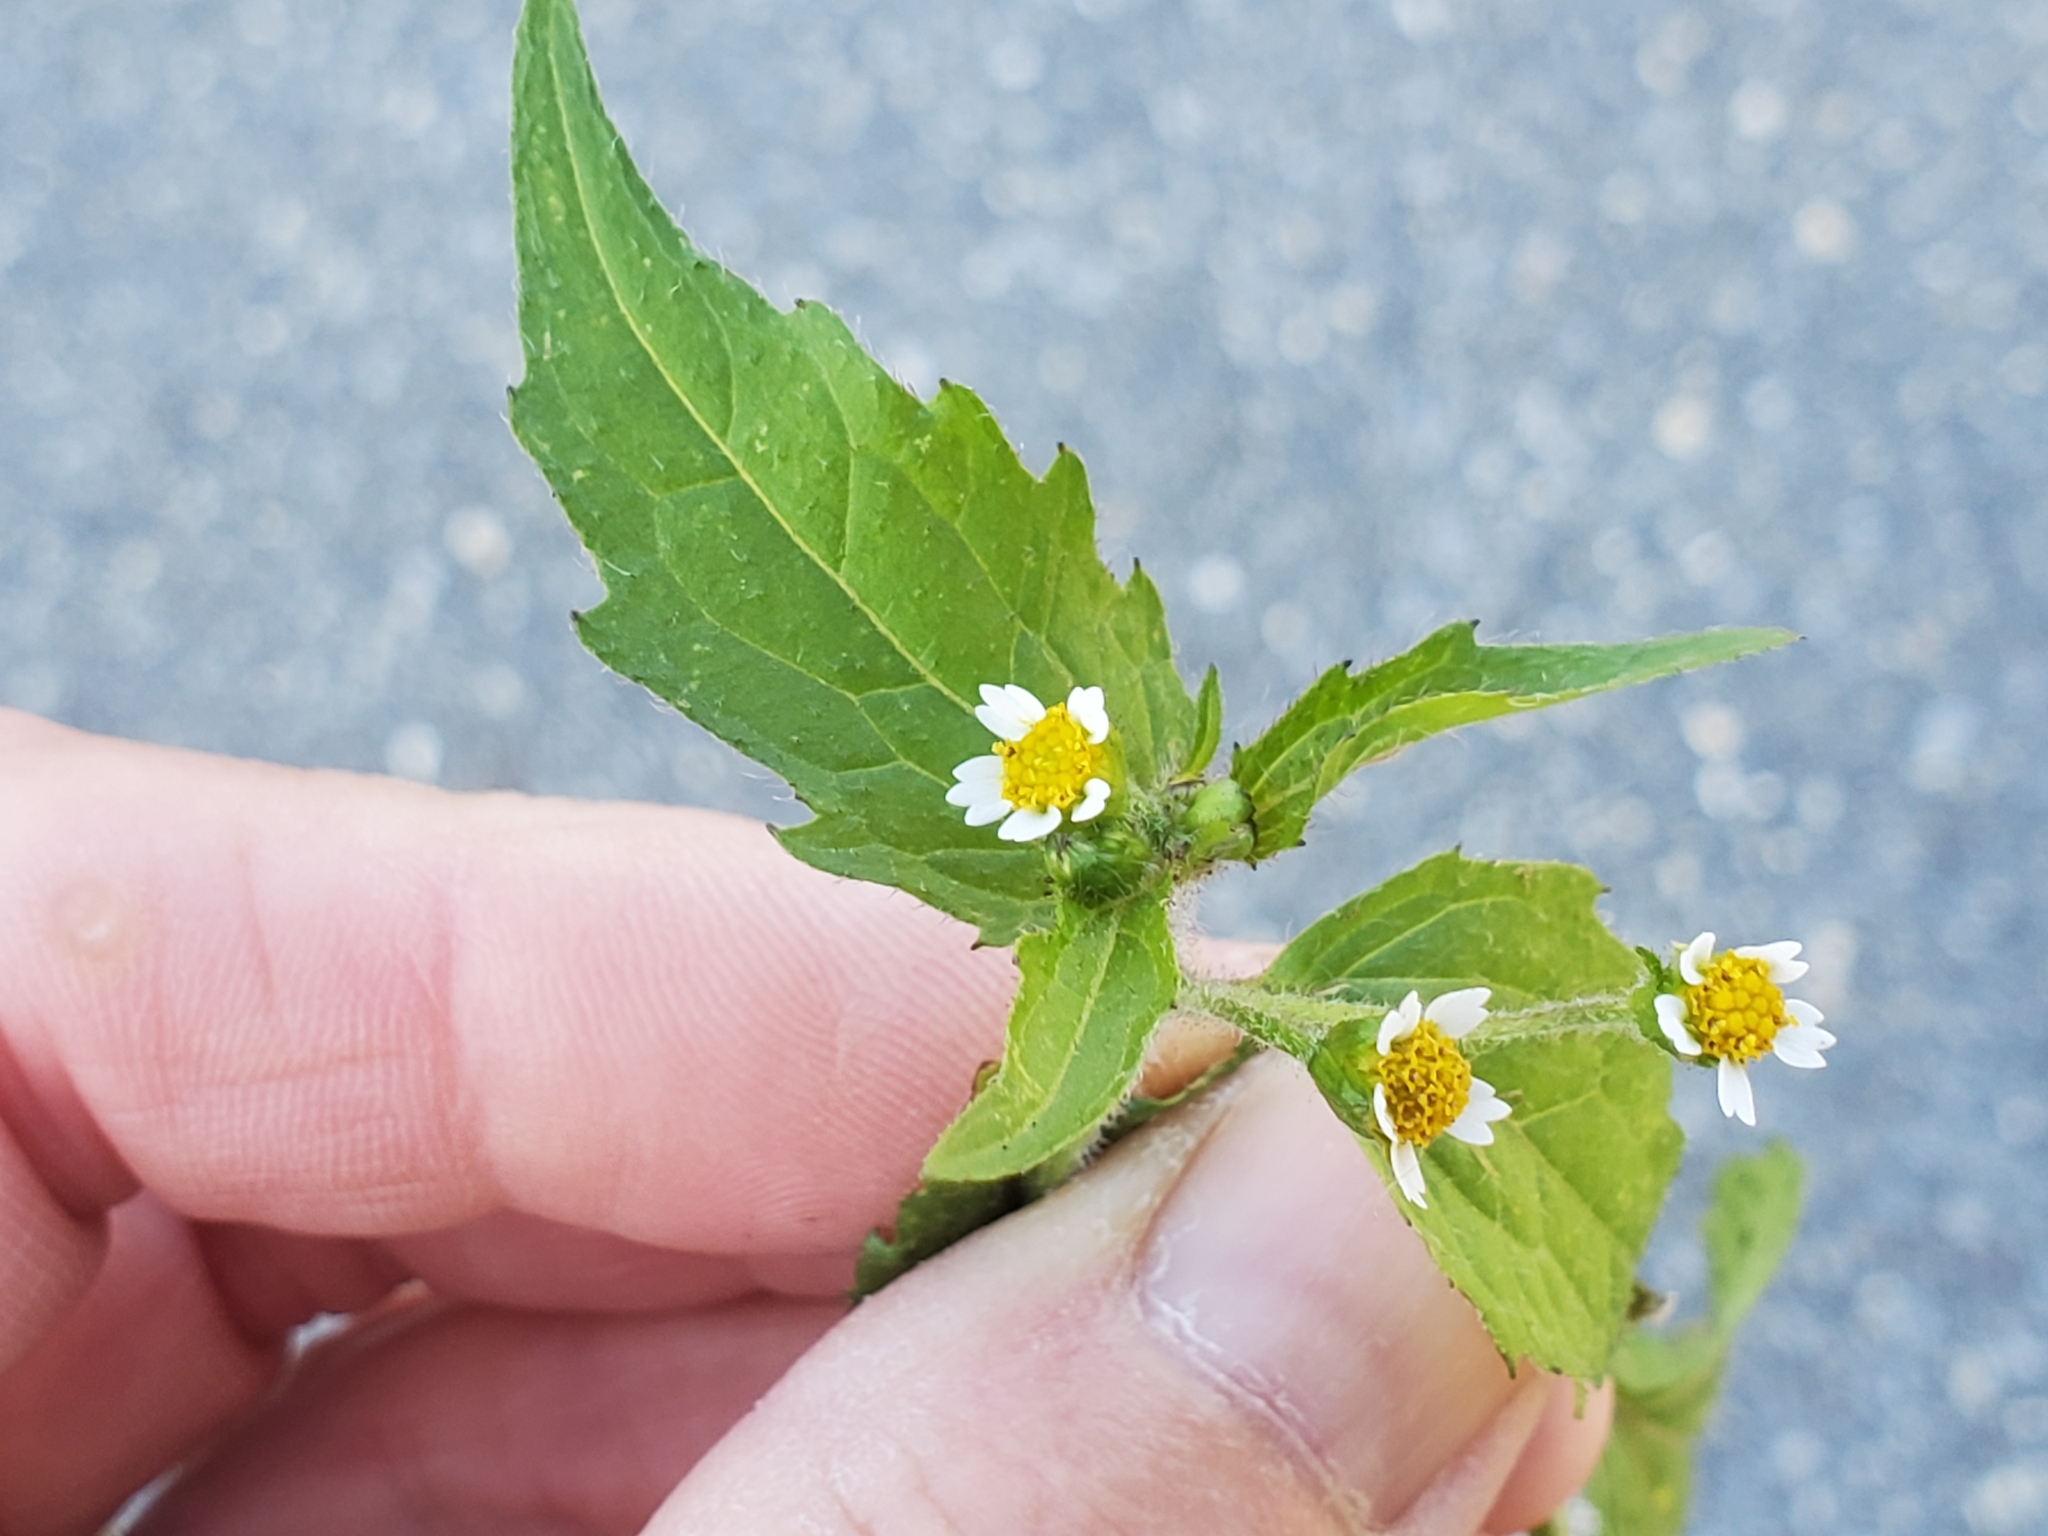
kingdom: Plantae
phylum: Tracheophyta
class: Magnoliopsida
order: Asterales
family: Asteraceae
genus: Galinsoga
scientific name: Galinsoga quadriradiata
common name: Shaggy soldier
